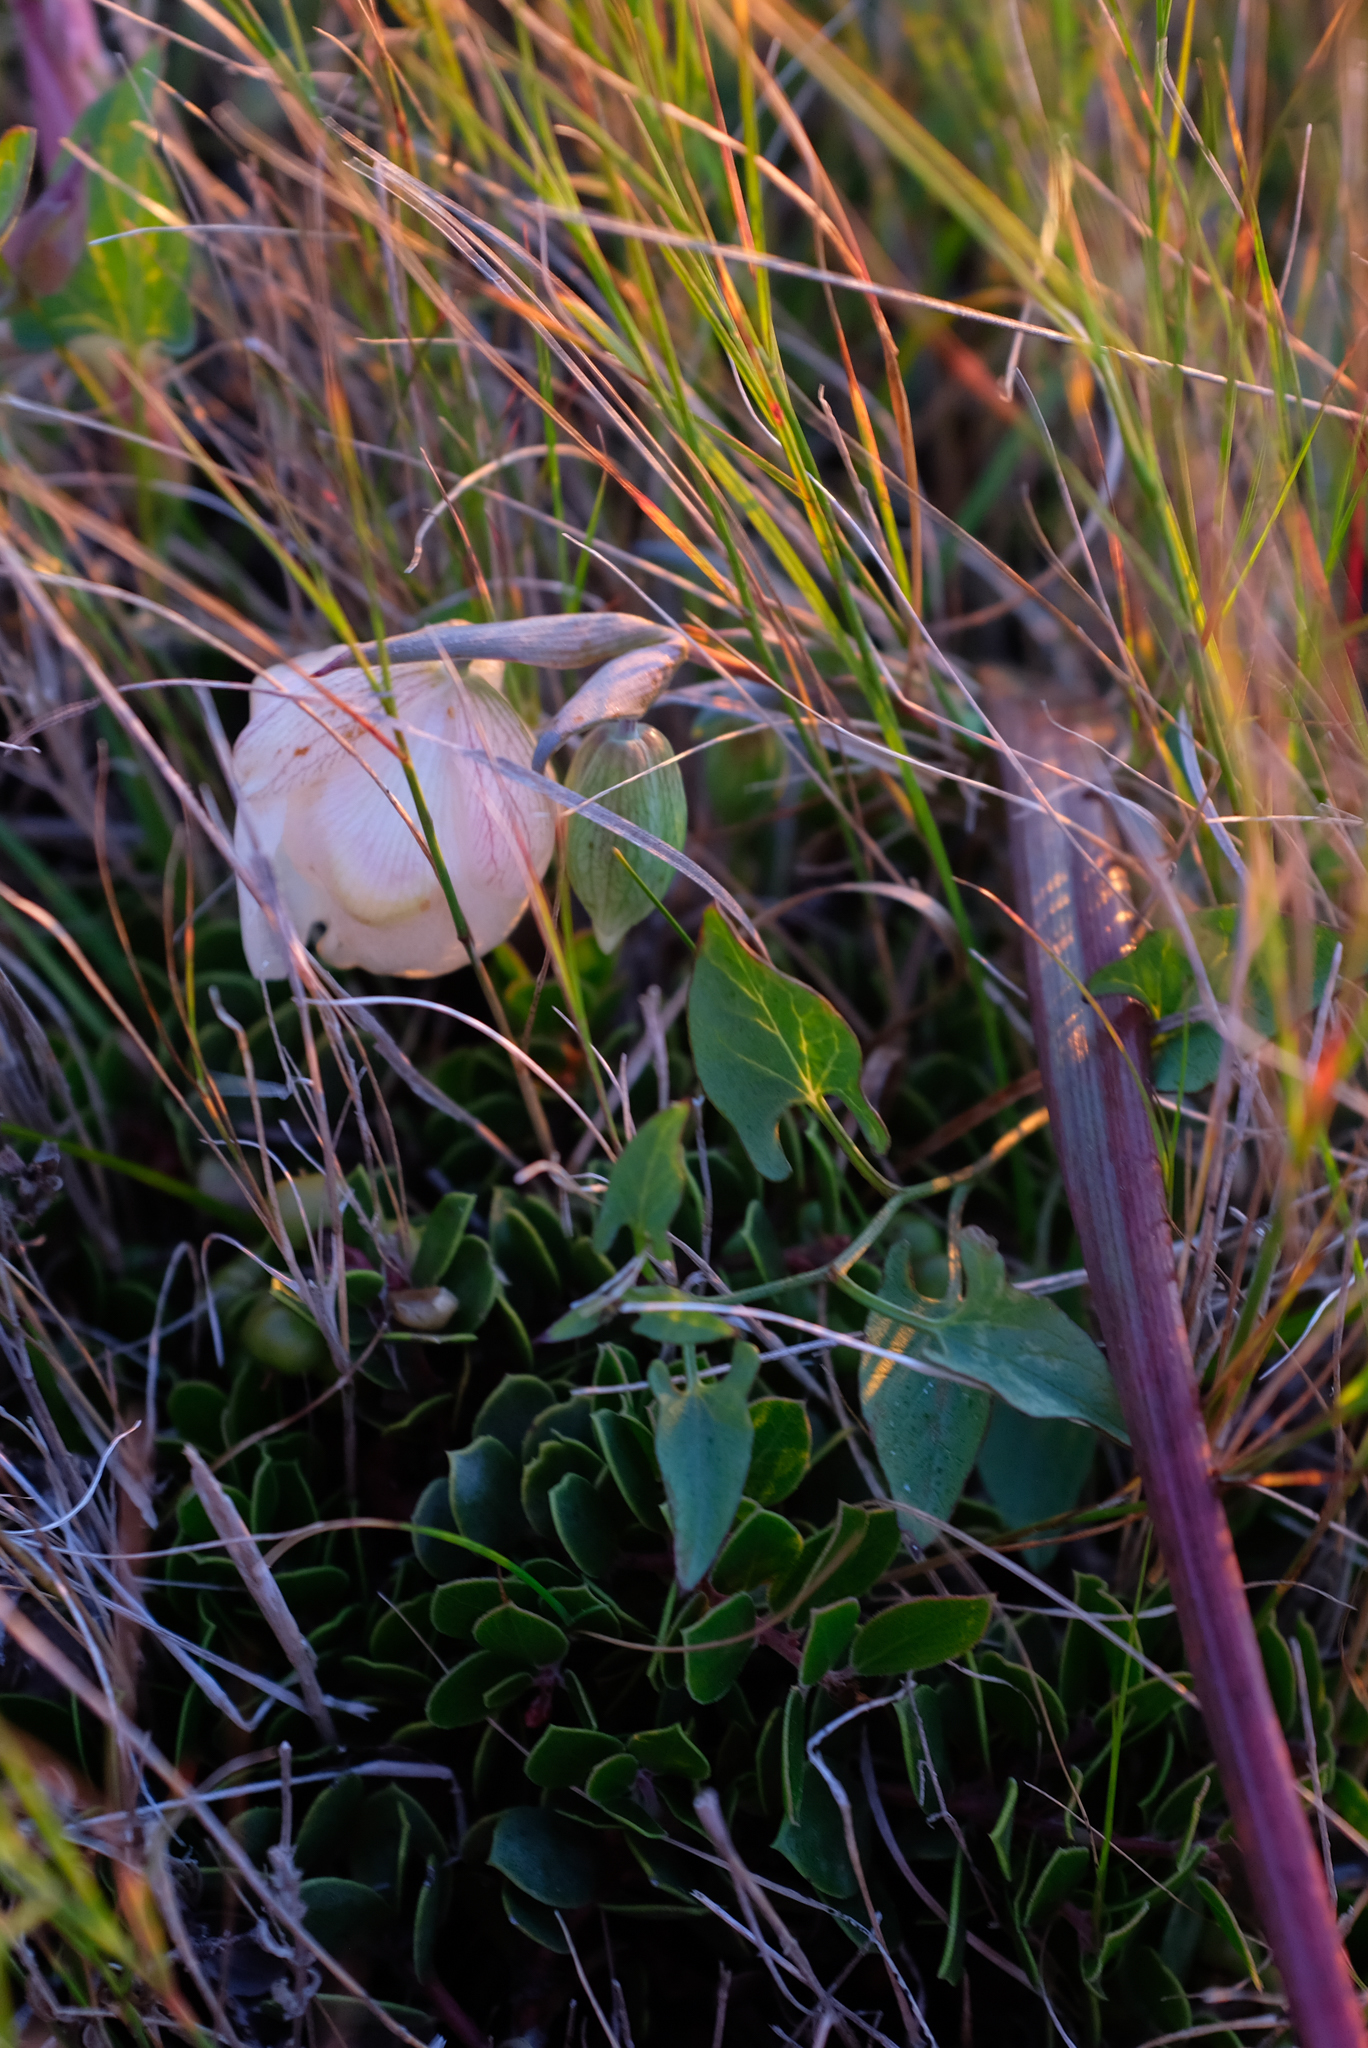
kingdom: Plantae
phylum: Tracheophyta
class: Liliopsida
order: Liliales
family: Liliaceae
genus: Calochortus
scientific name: Calochortus albus
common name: Fairy-lantern
